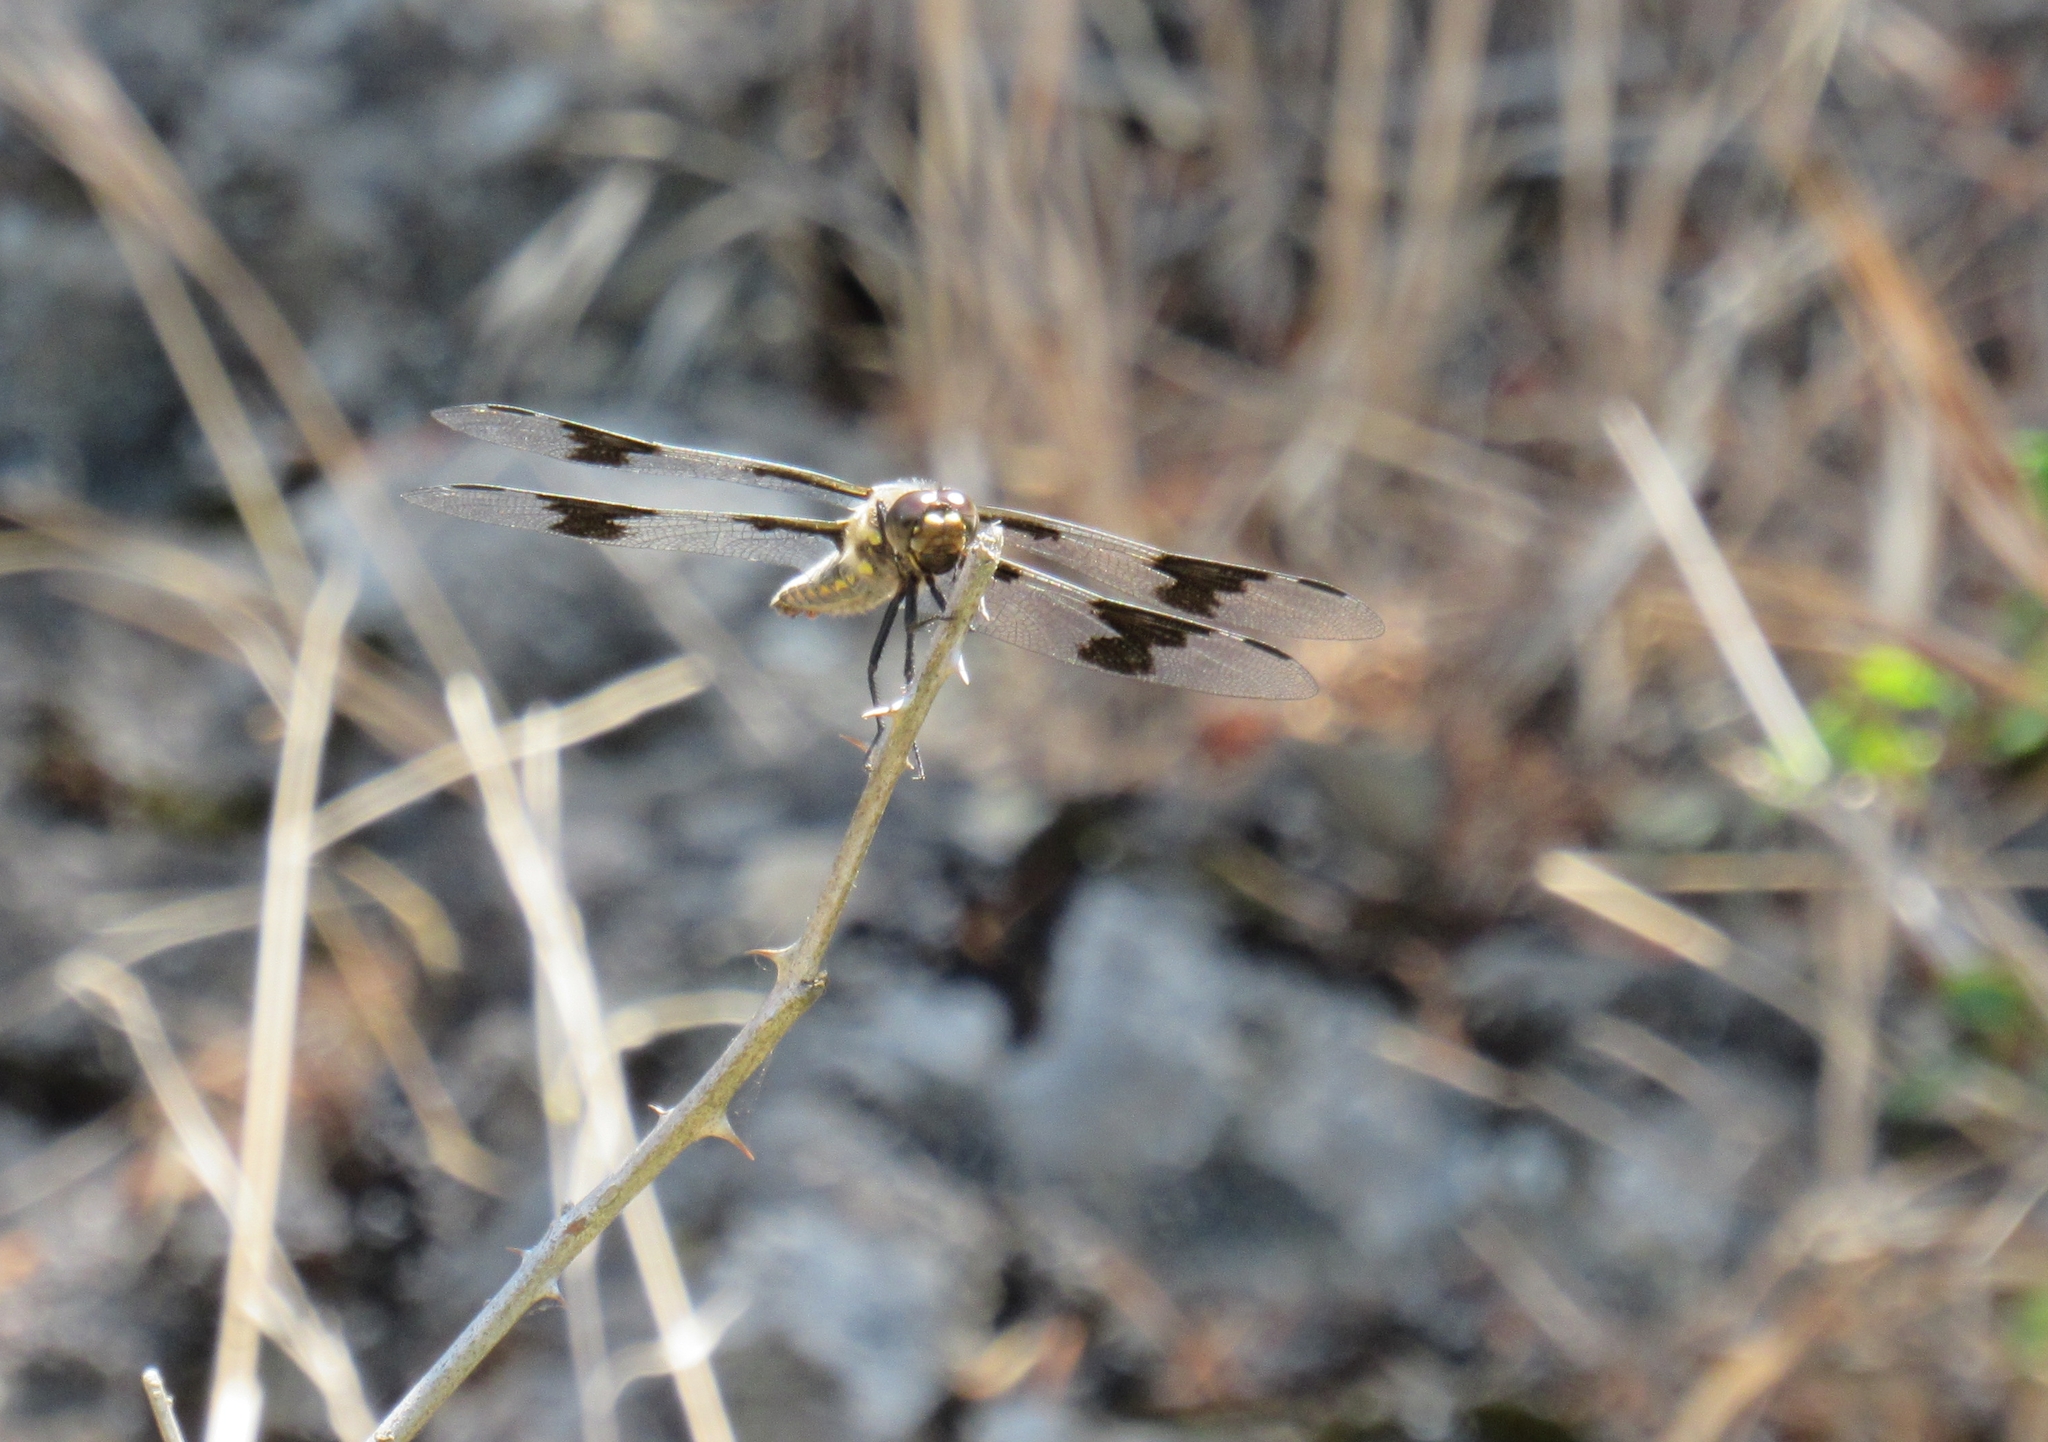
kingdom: Animalia
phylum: Arthropoda
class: Insecta
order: Odonata
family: Libellulidae
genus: Libellula
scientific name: Libellula forensis
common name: Eight-spotted skimmer
